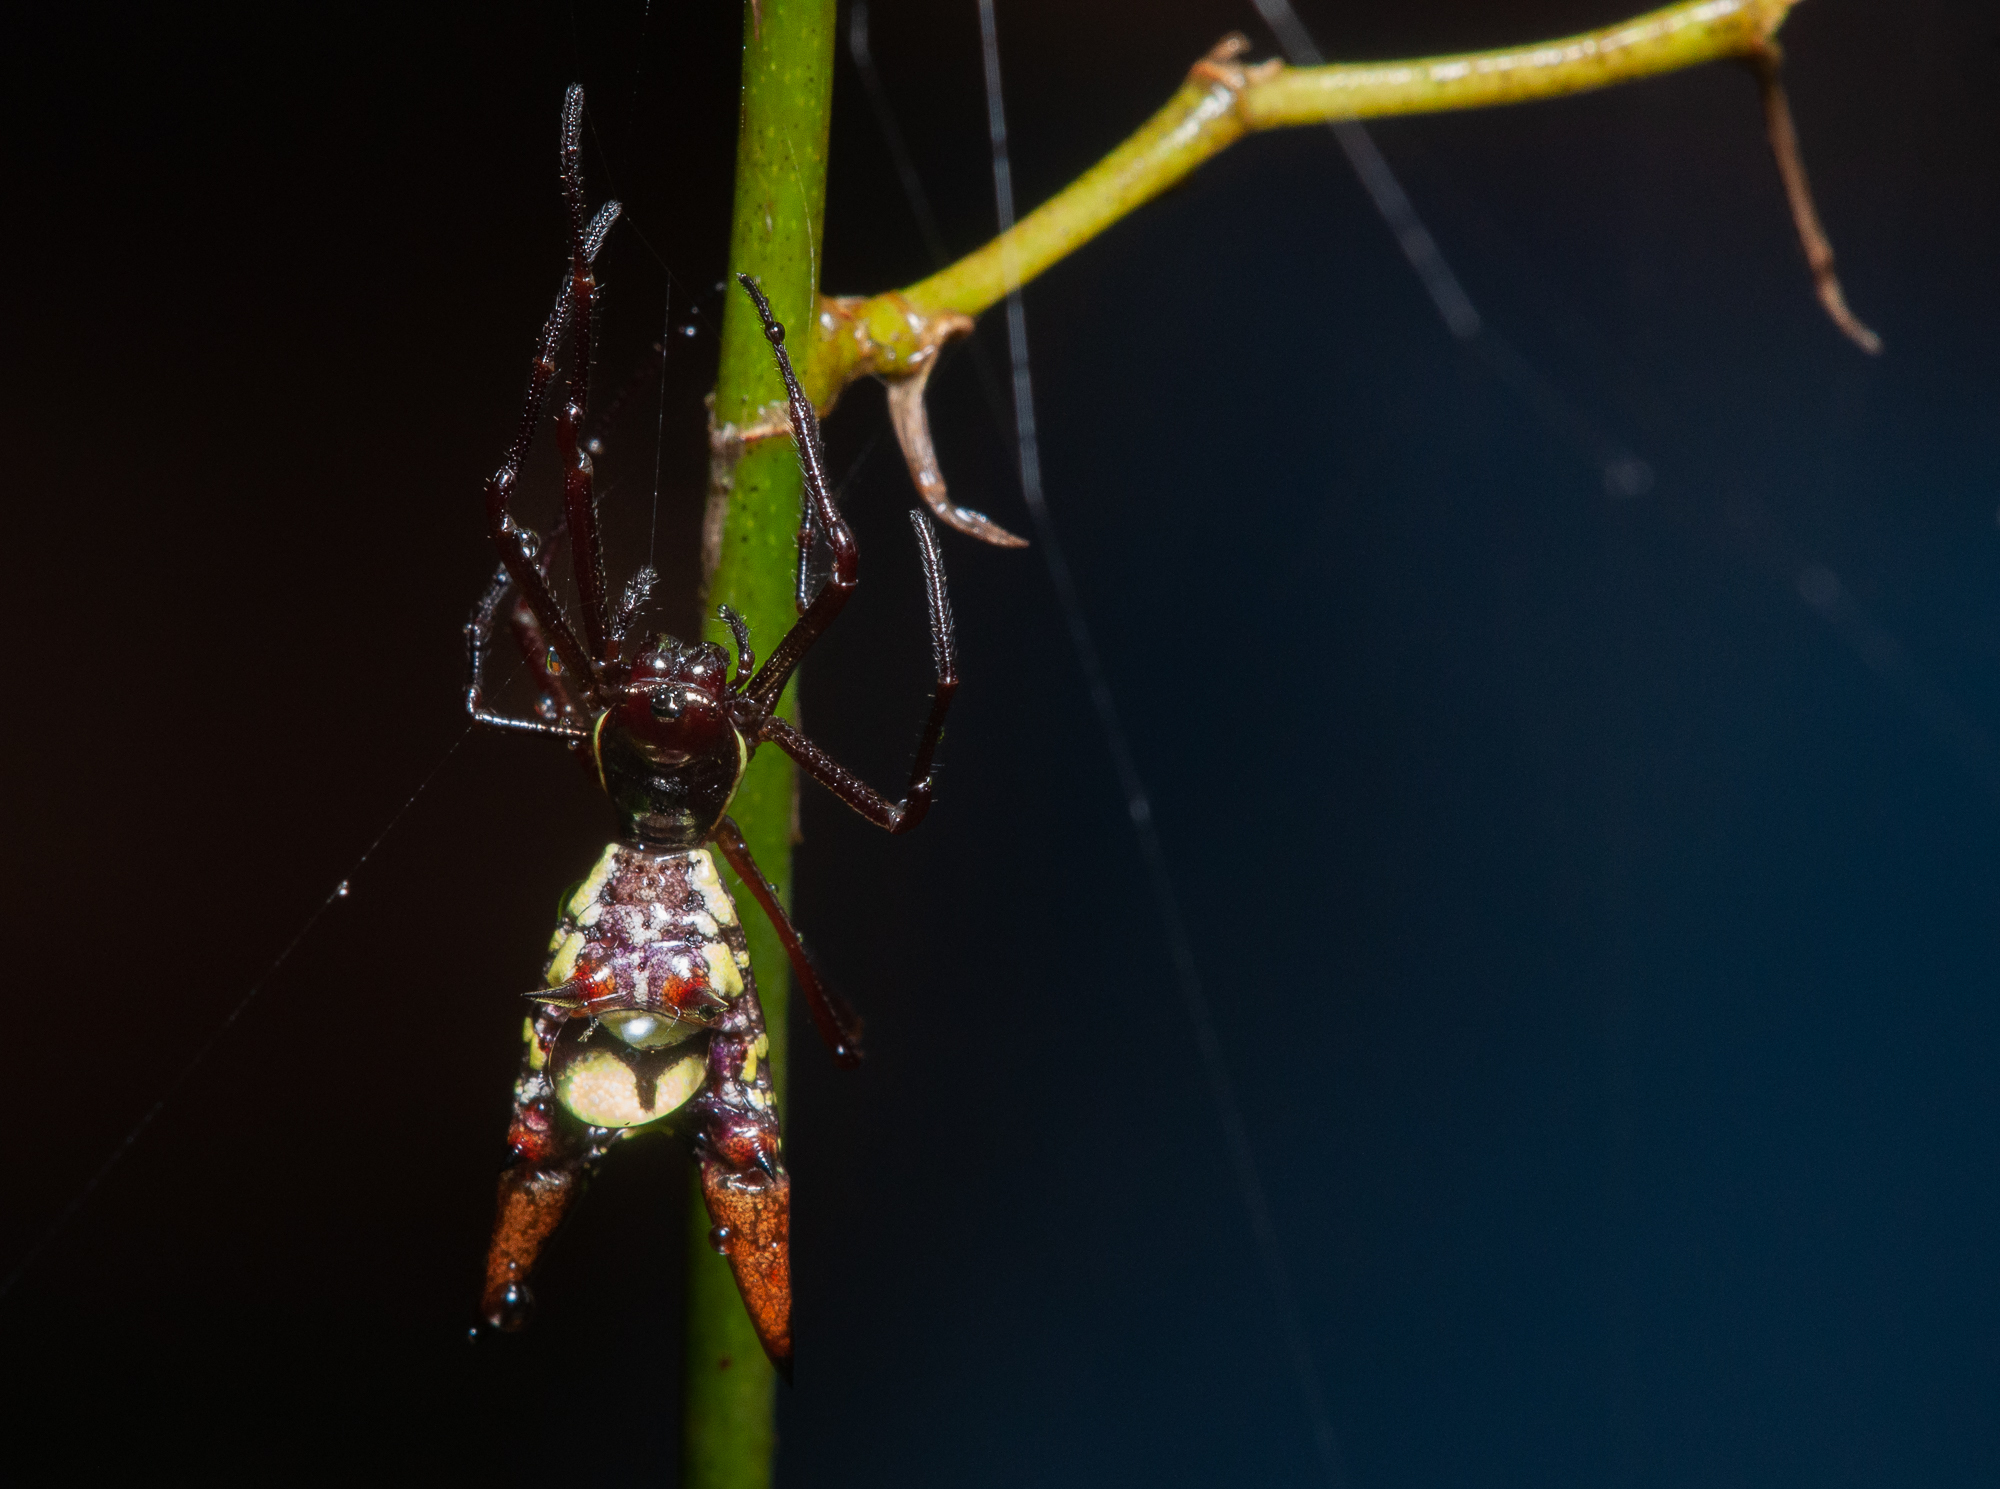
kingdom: Animalia
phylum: Arthropoda
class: Arachnida
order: Araneae
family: Araneidae
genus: Micrathena
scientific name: Micrathena sexspinosa
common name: Orb weavers
